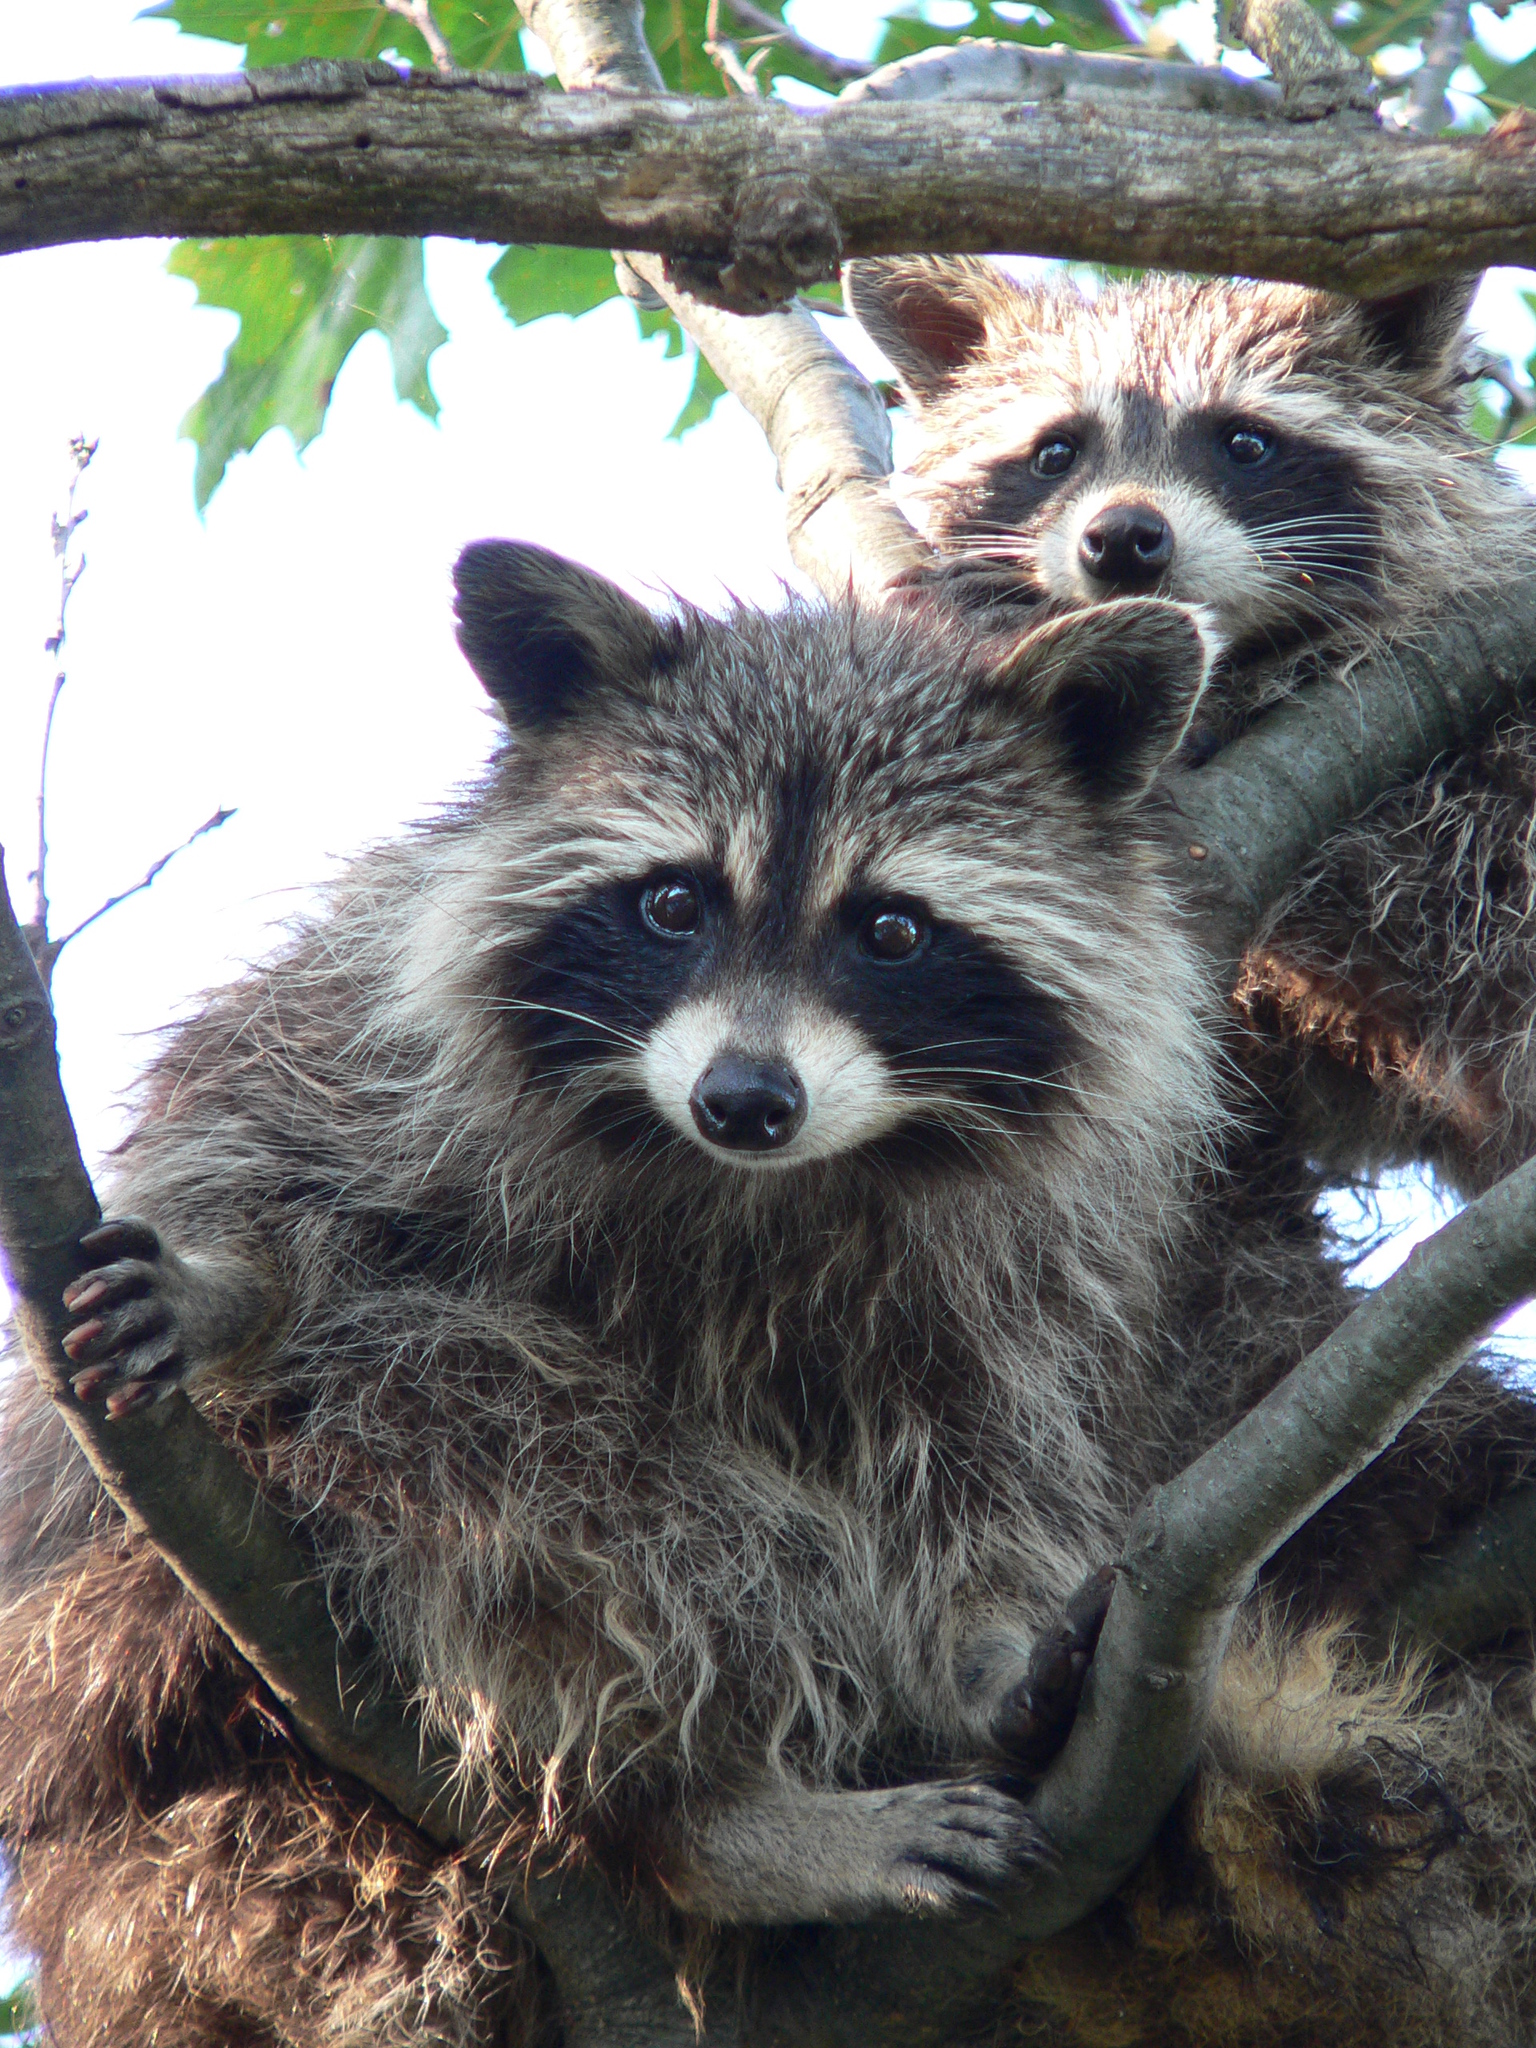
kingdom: Animalia
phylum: Chordata
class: Mammalia
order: Carnivora
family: Procyonidae
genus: Procyon
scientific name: Procyon lotor
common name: Raccoon
